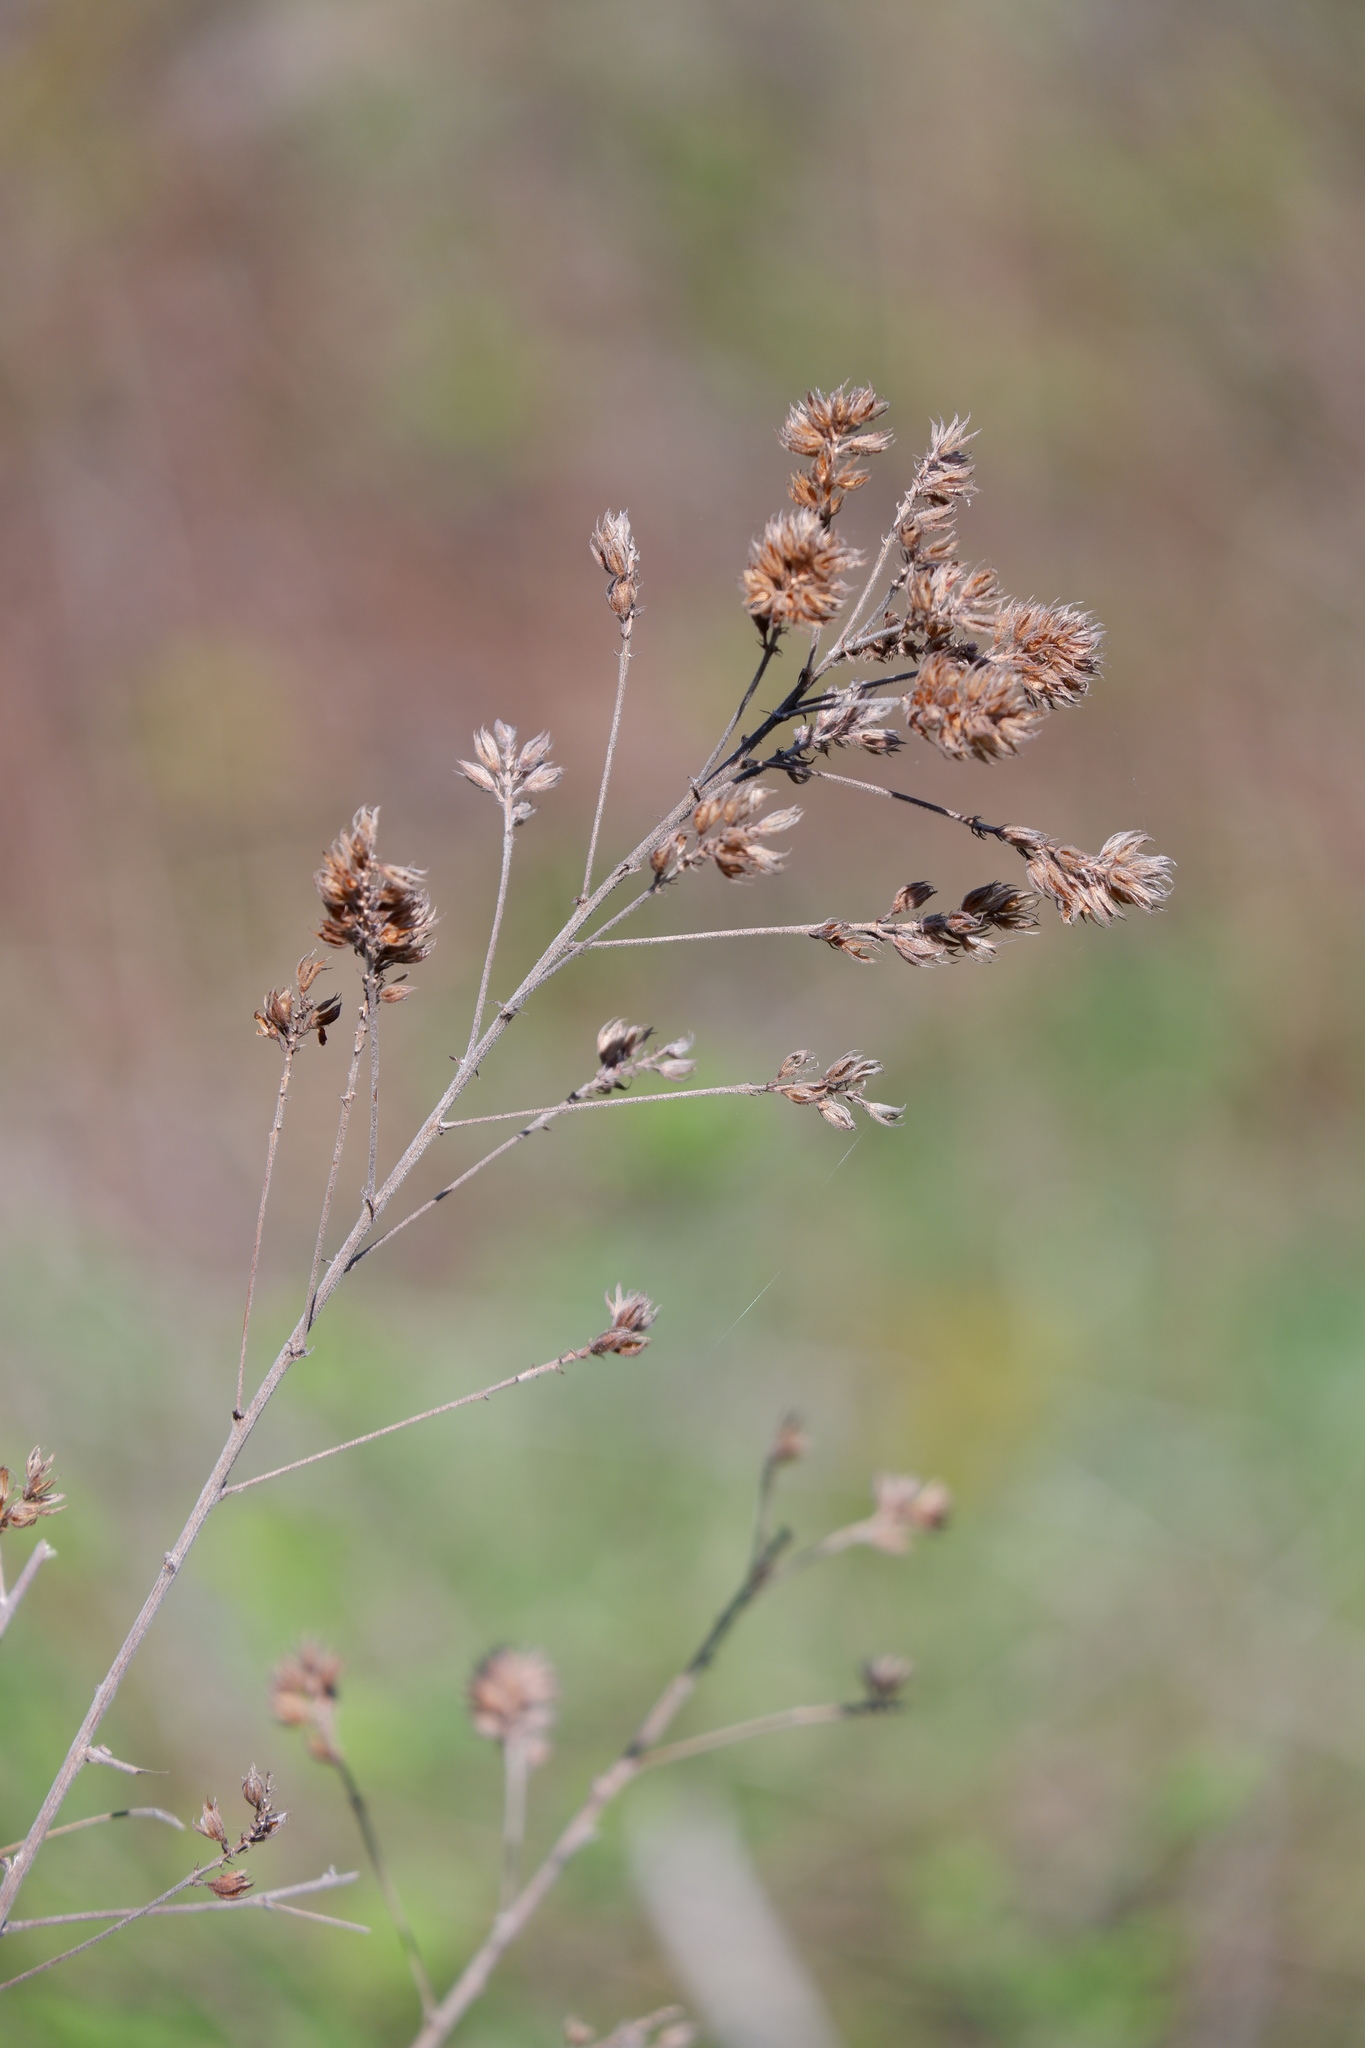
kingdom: Plantae
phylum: Tracheophyta
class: Magnoliopsida
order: Fabales
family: Fabaceae
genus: Lespedeza
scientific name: Lespedeza hirta
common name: Hairy lespedeza
